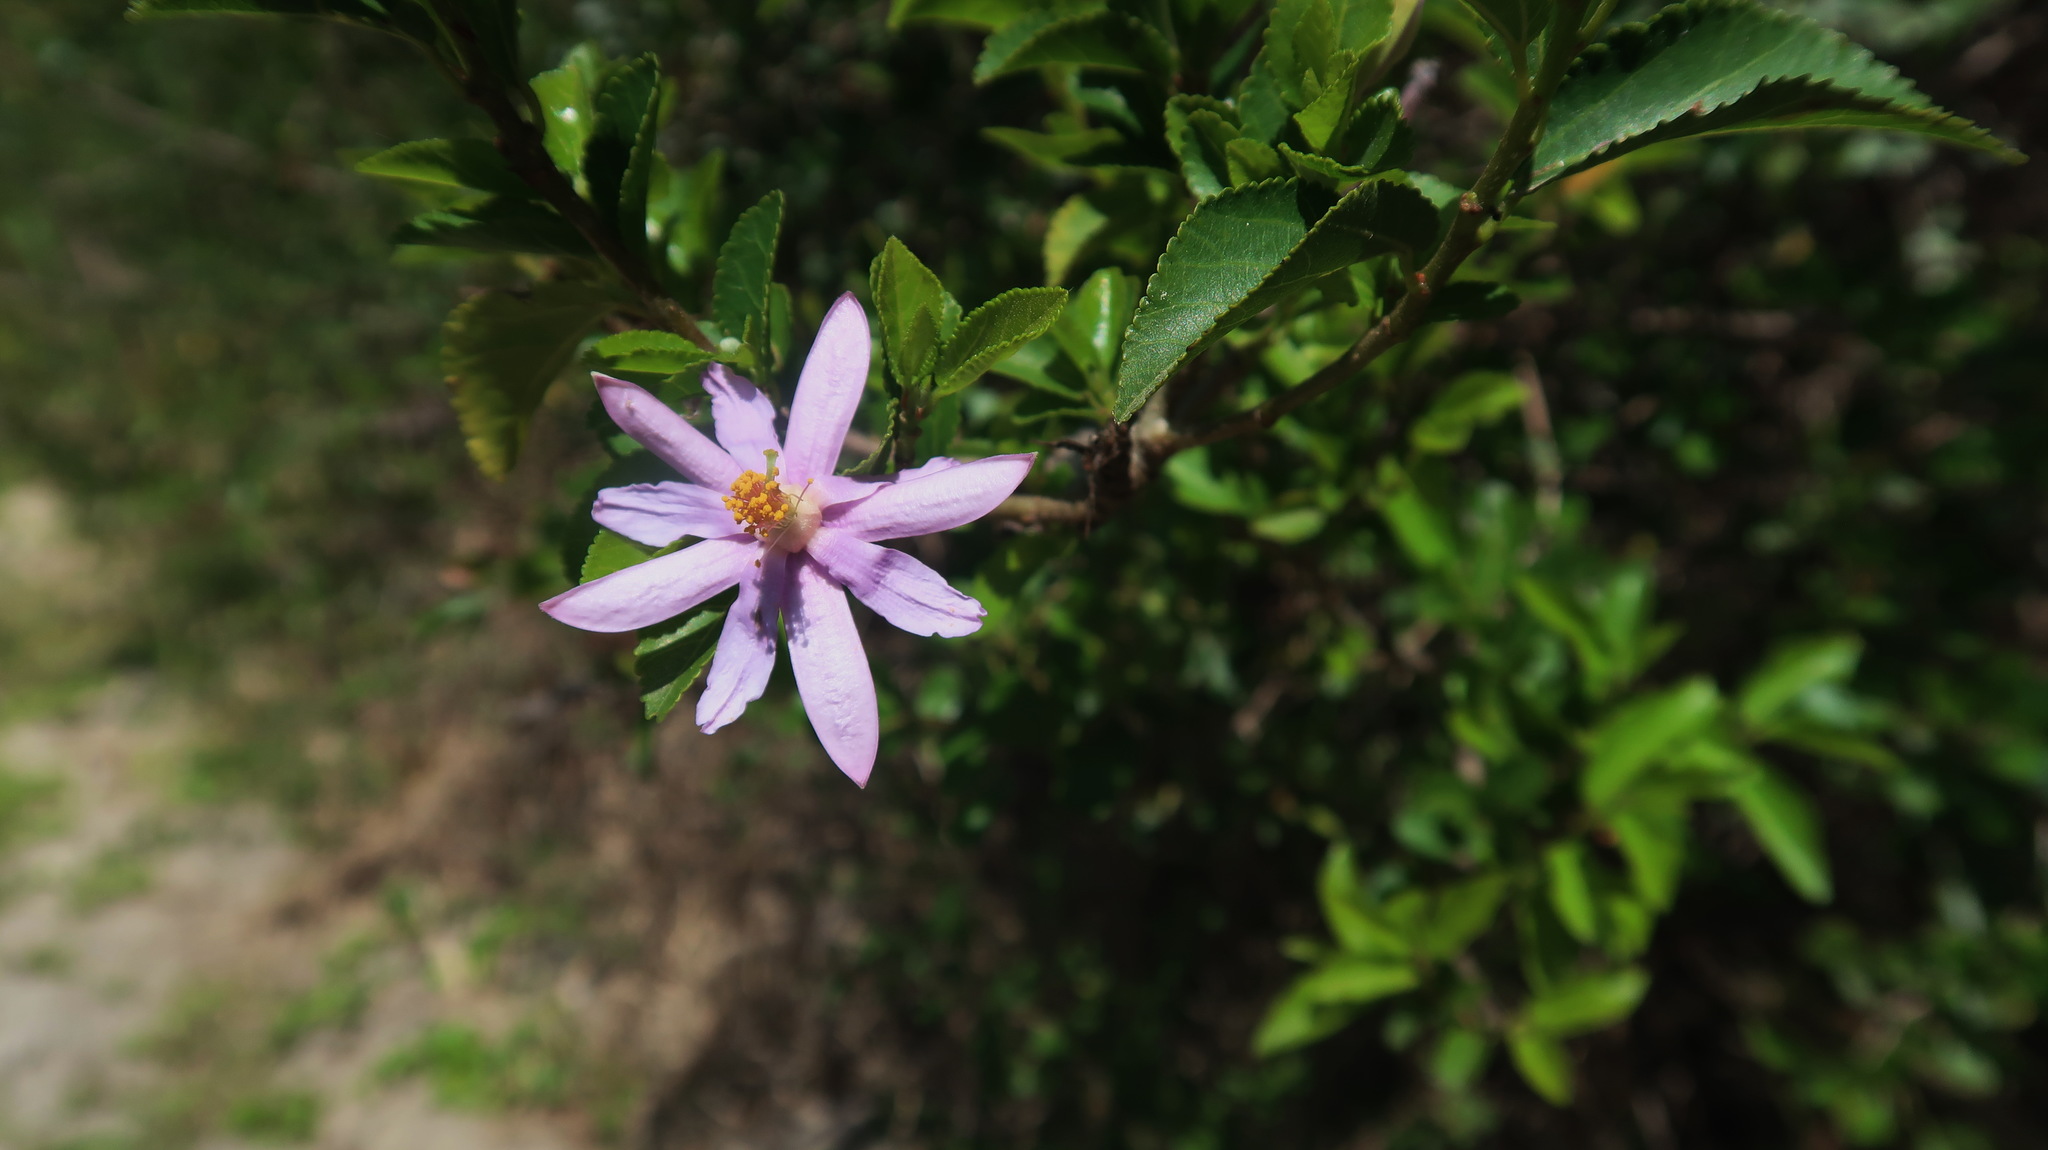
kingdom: Plantae
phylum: Tracheophyta
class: Magnoliopsida
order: Malvales
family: Malvaceae
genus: Grewia
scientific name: Grewia occidentalis
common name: Crossberry
